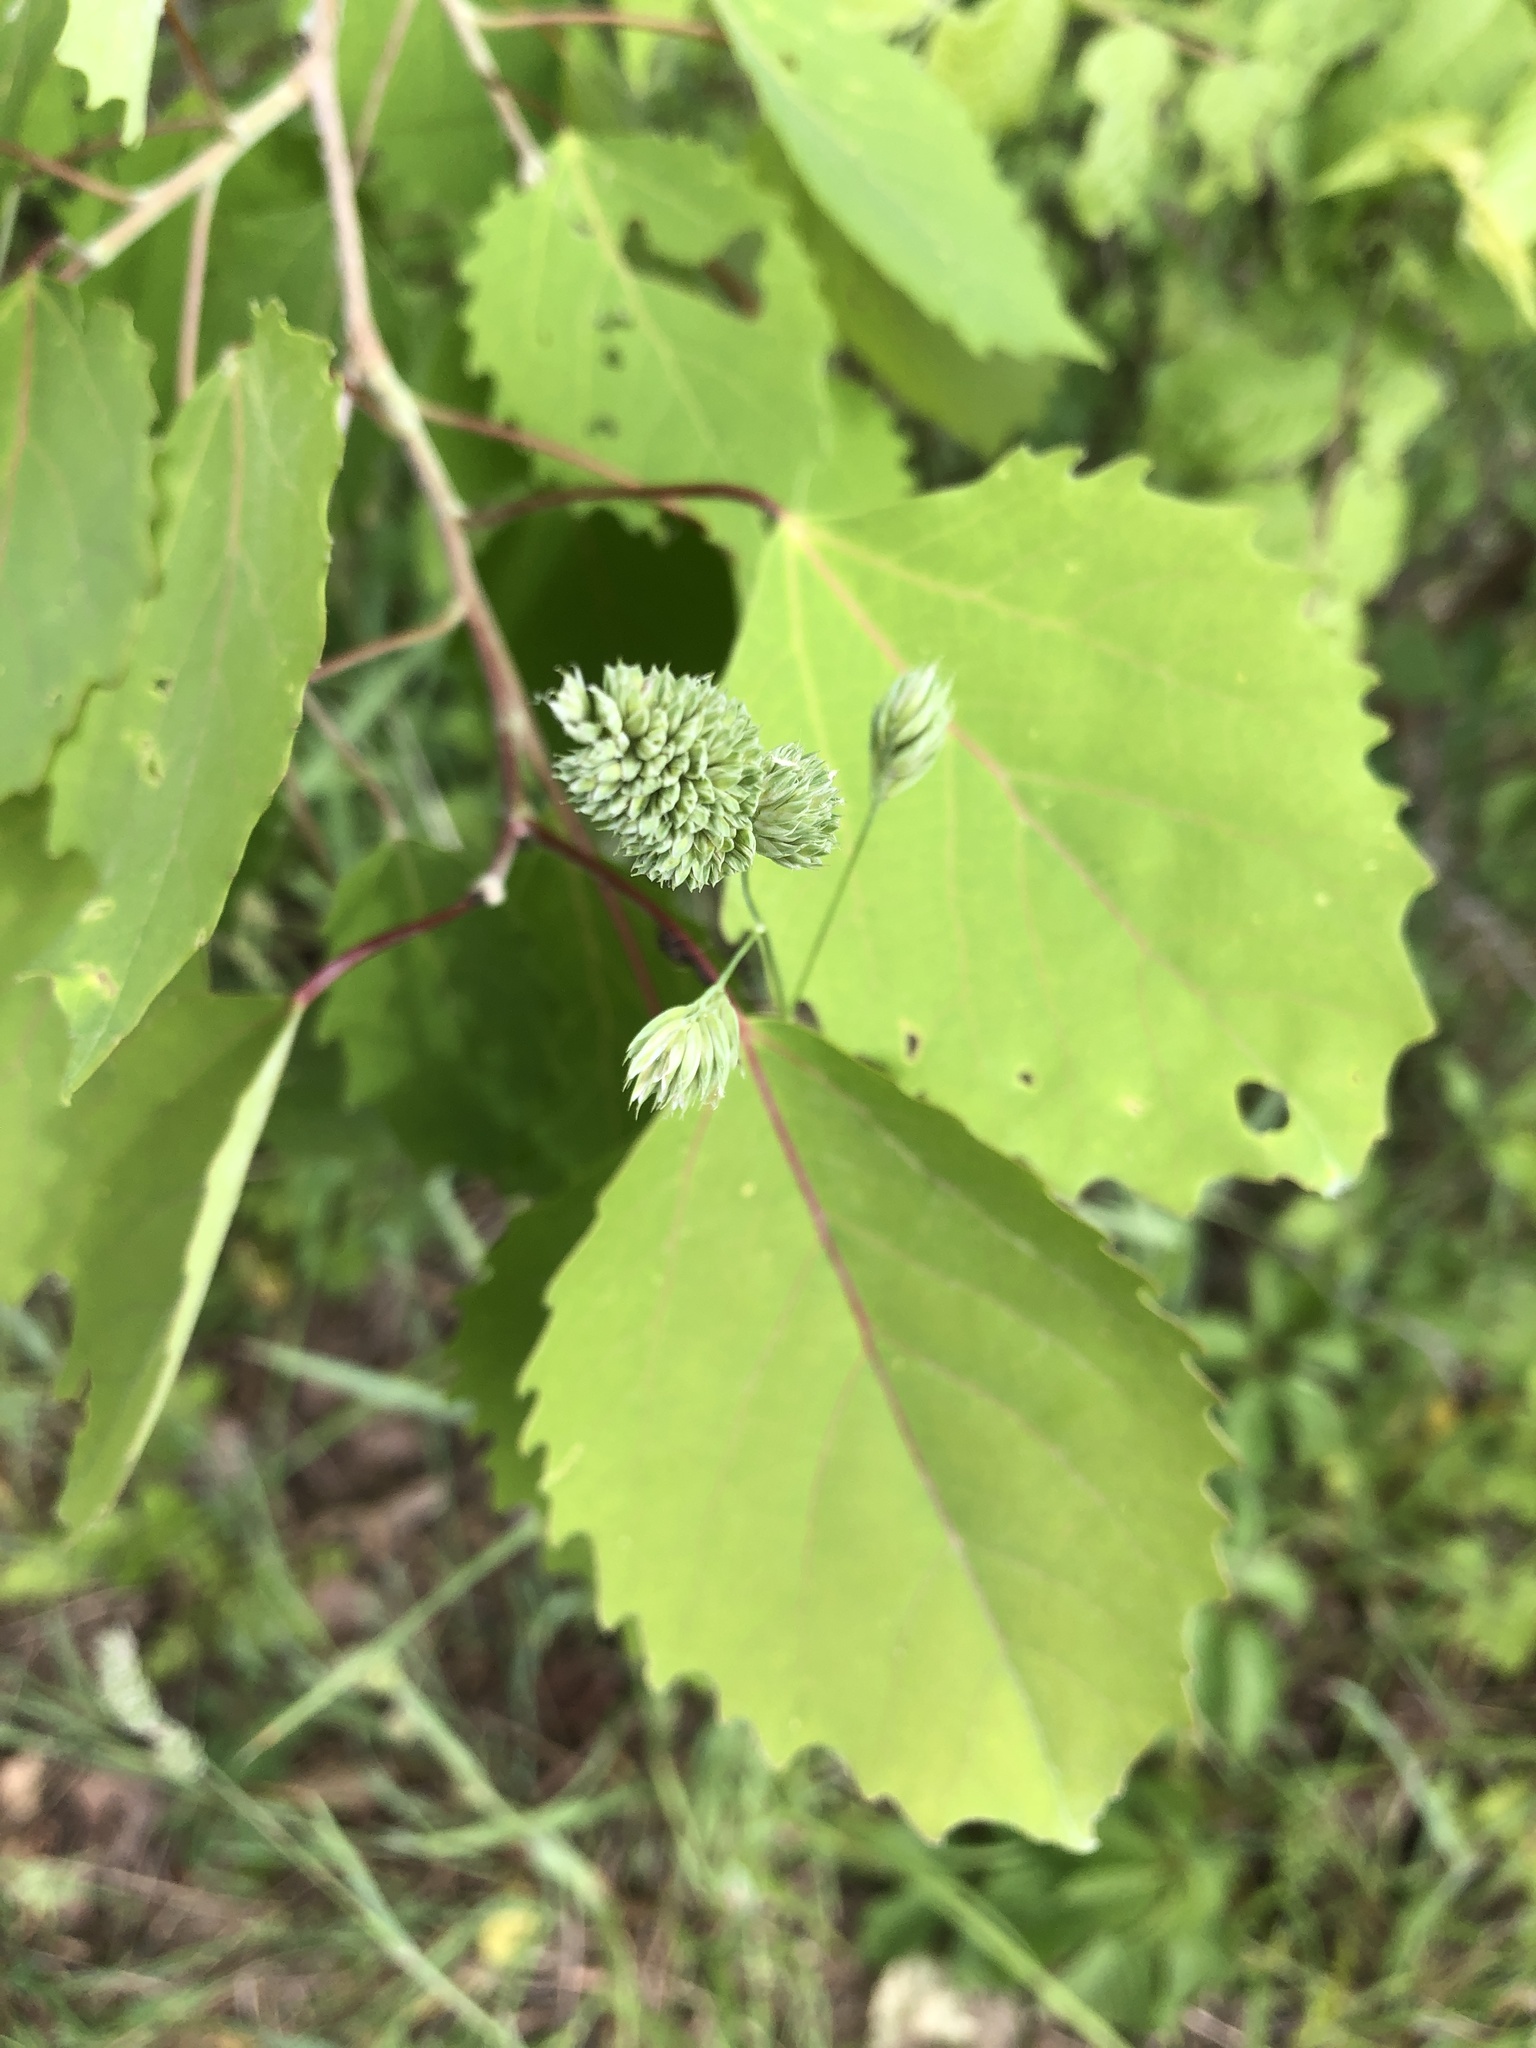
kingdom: Plantae
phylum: Tracheophyta
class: Magnoliopsida
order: Malpighiales
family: Salicaceae
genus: Populus
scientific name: Populus grandidentata
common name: Bigtooth aspen
